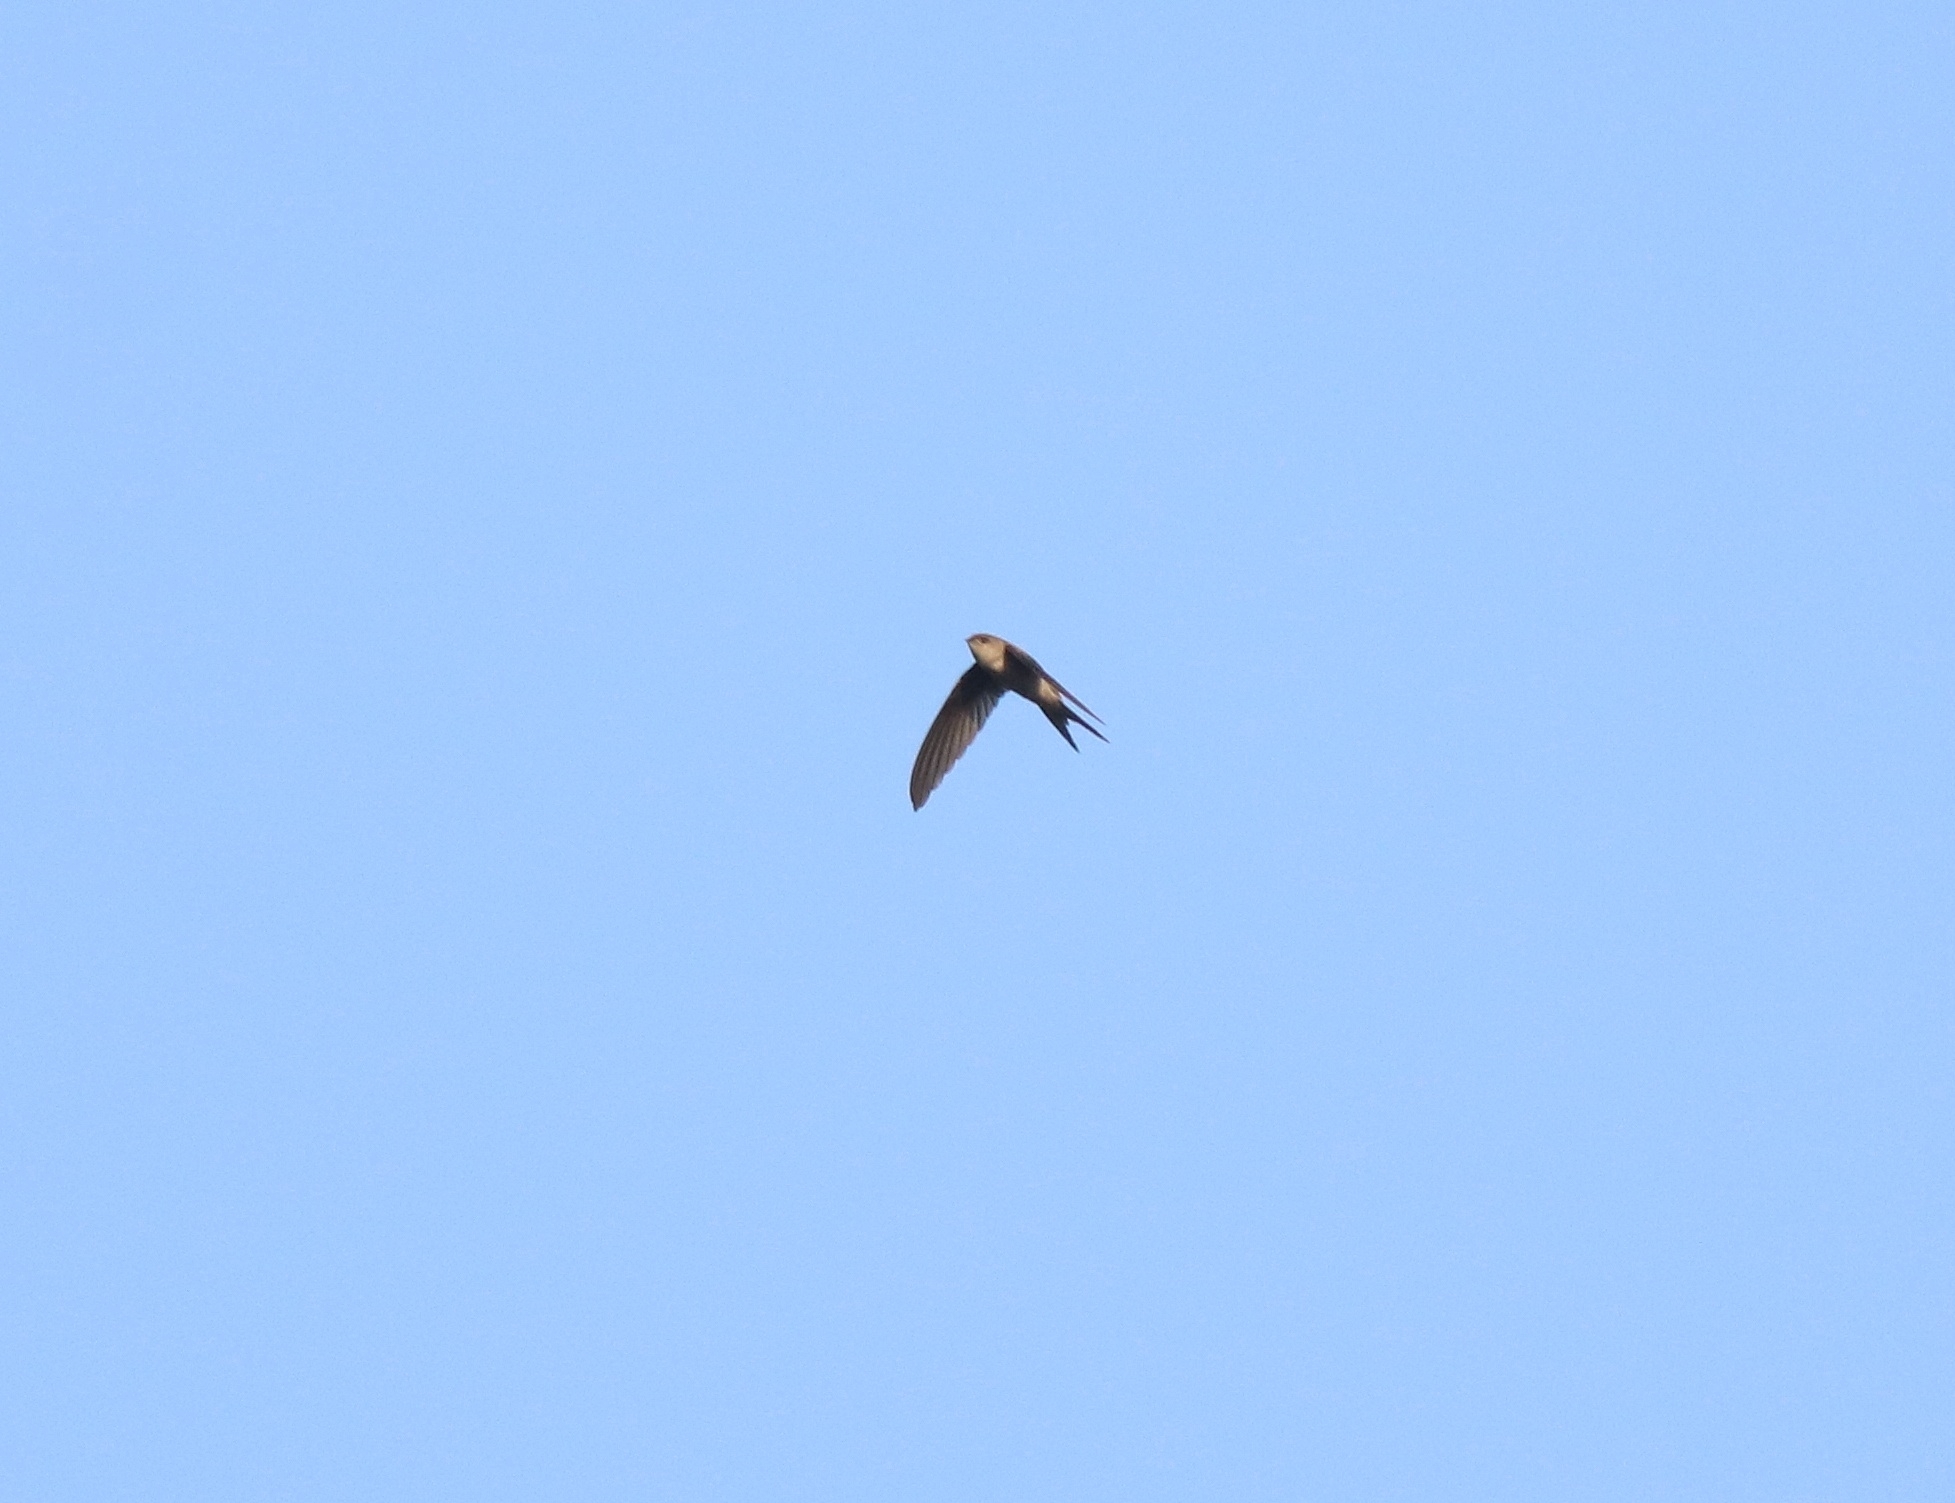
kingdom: Animalia
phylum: Chordata
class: Aves
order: Apodiformes
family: Apodidae
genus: Cypsiurus
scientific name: Cypsiurus balasiensis
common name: Asian palm swift
